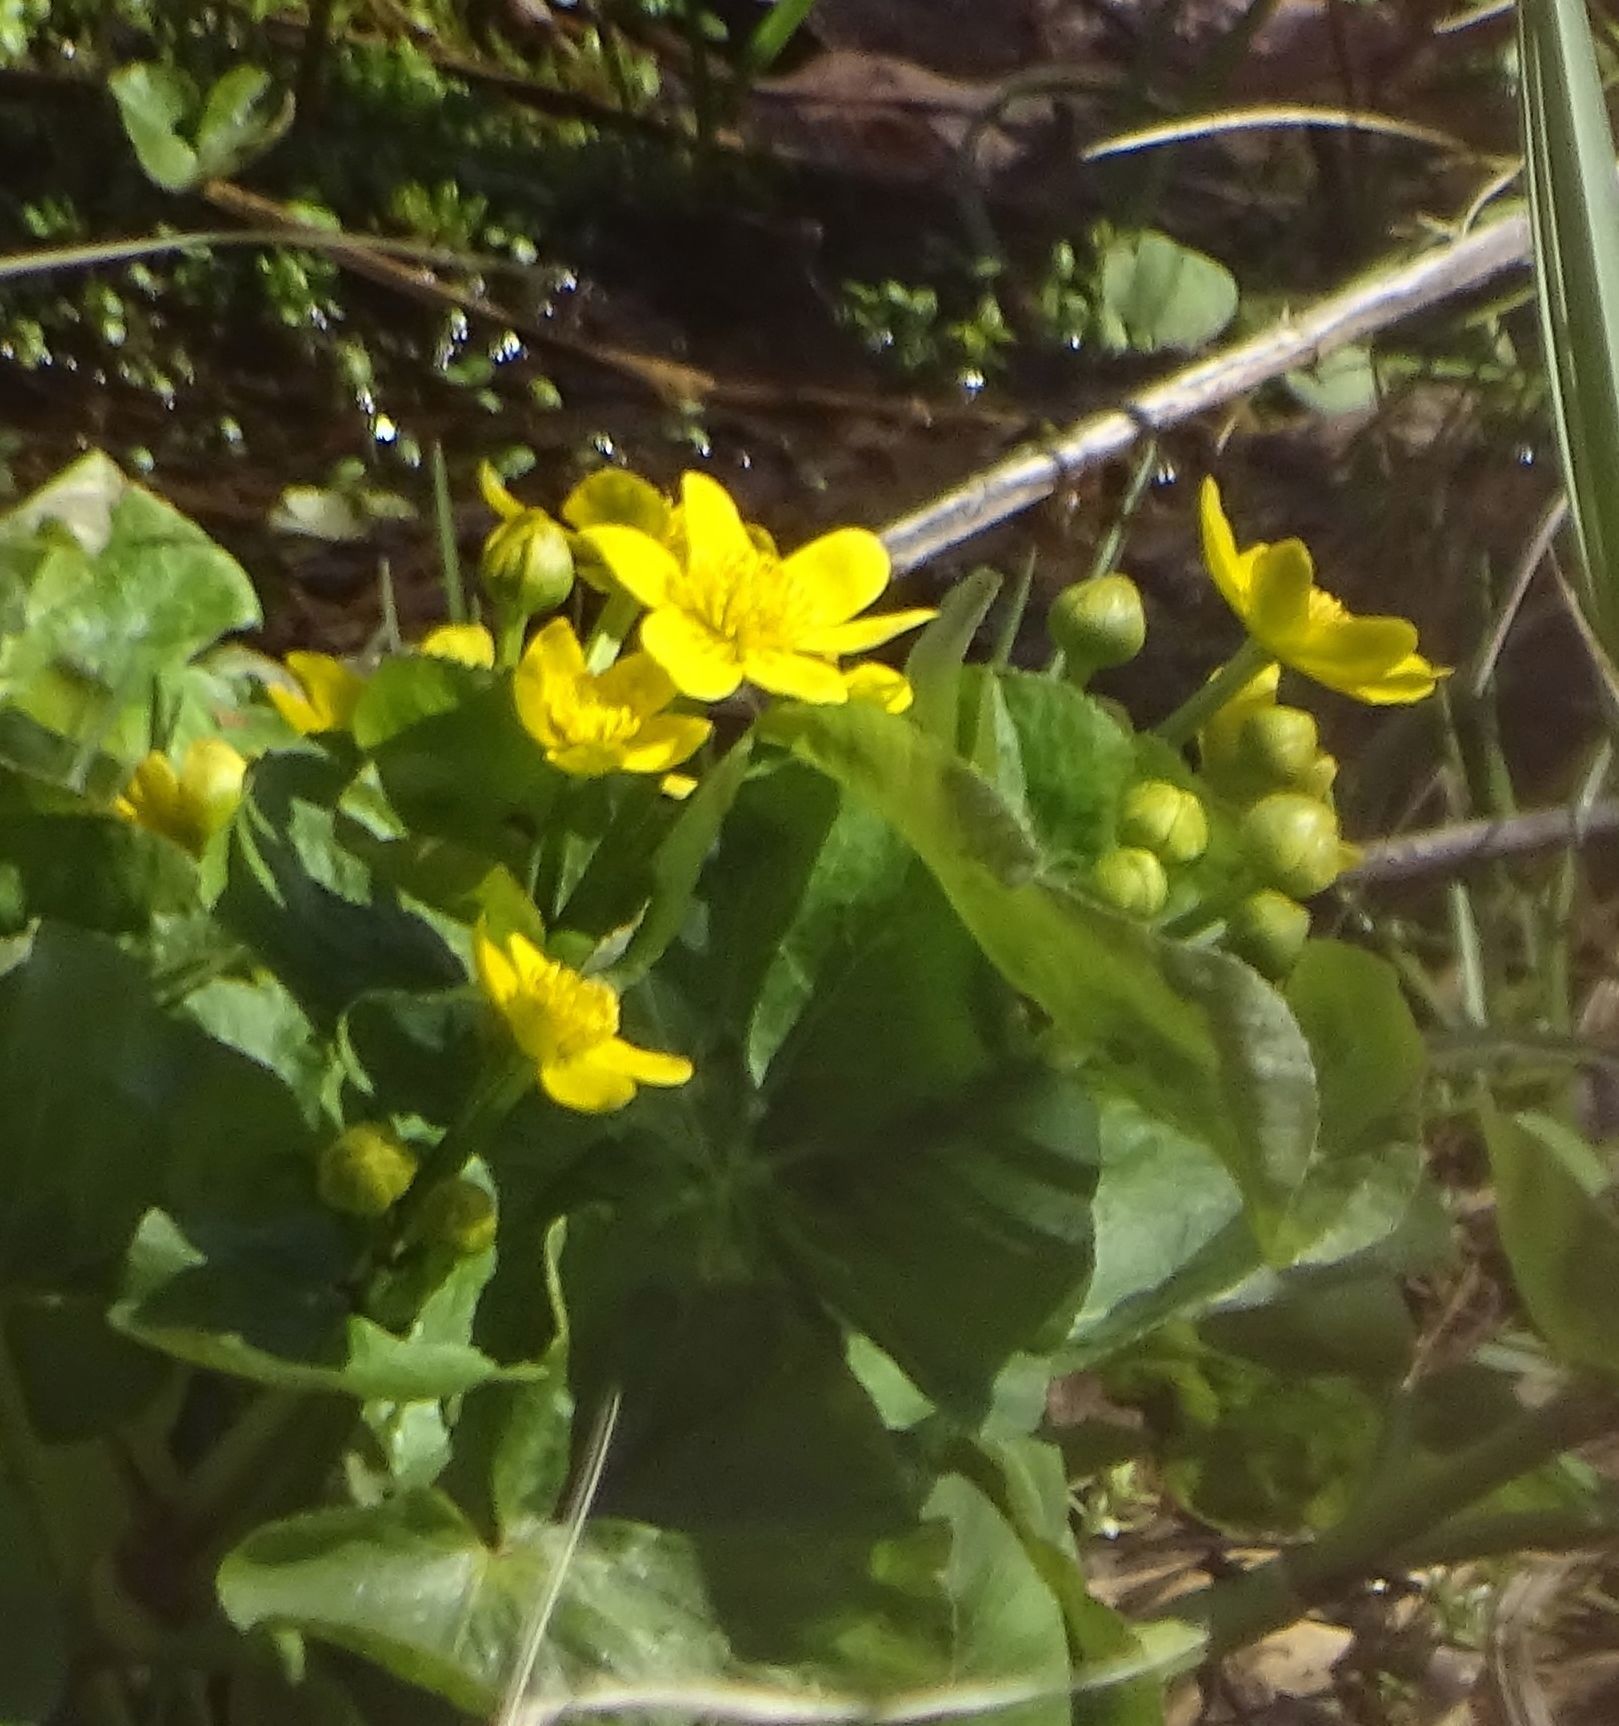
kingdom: Plantae
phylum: Tracheophyta
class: Magnoliopsida
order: Ranunculales
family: Ranunculaceae
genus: Caltha
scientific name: Caltha palustris
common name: Marsh marigold
